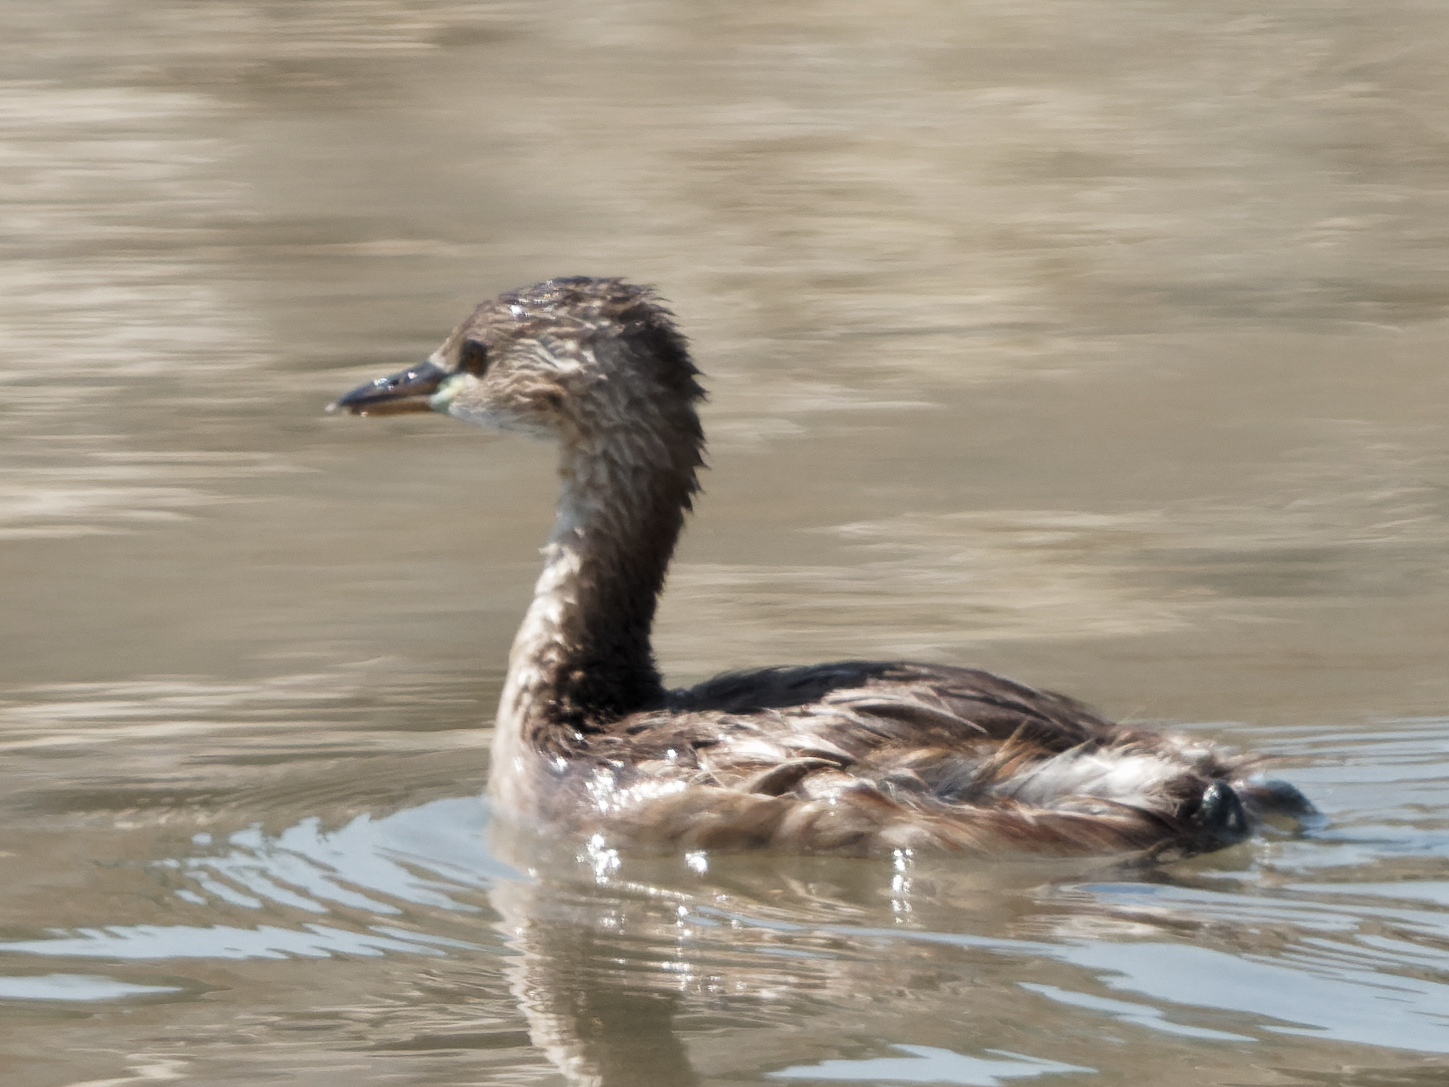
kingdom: Animalia
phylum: Chordata
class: Aves
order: Podicipediformes
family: Podicipedidae
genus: Tachybaptus
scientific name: Tachybaptus ruficollis
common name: Little grebe
